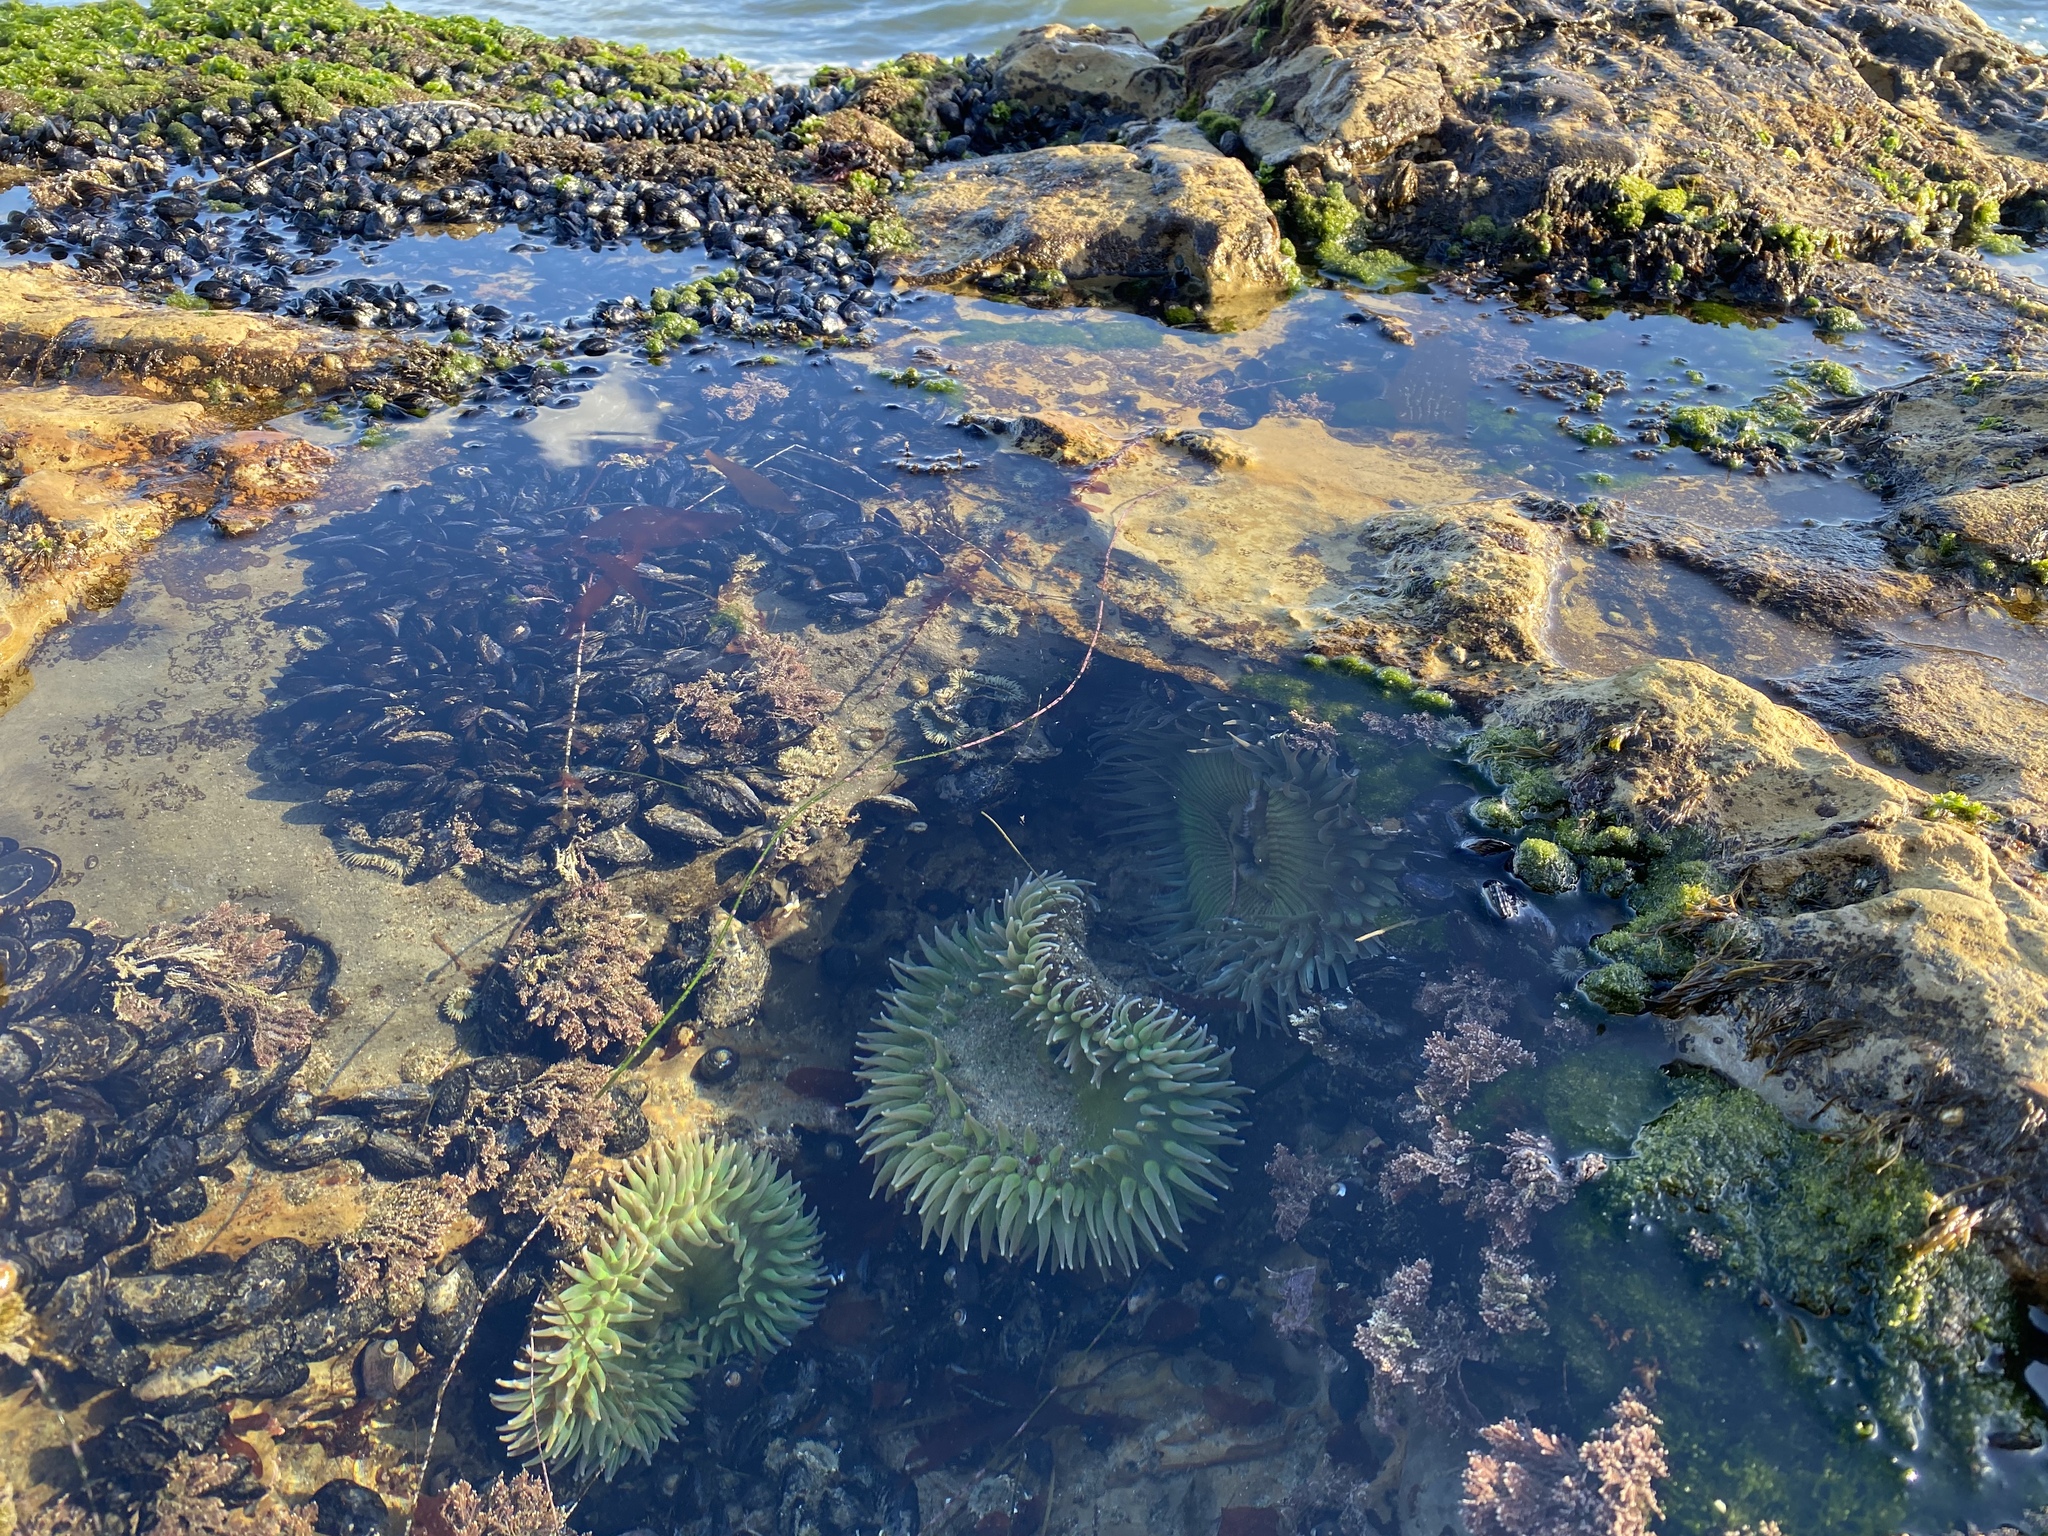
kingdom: Animalia
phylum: Cnidaria
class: Anthozoa
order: Actiniaria
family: Actiniidae
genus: Anthopleura
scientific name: Anthopleura xanthogrammica
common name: Giant green anemone
